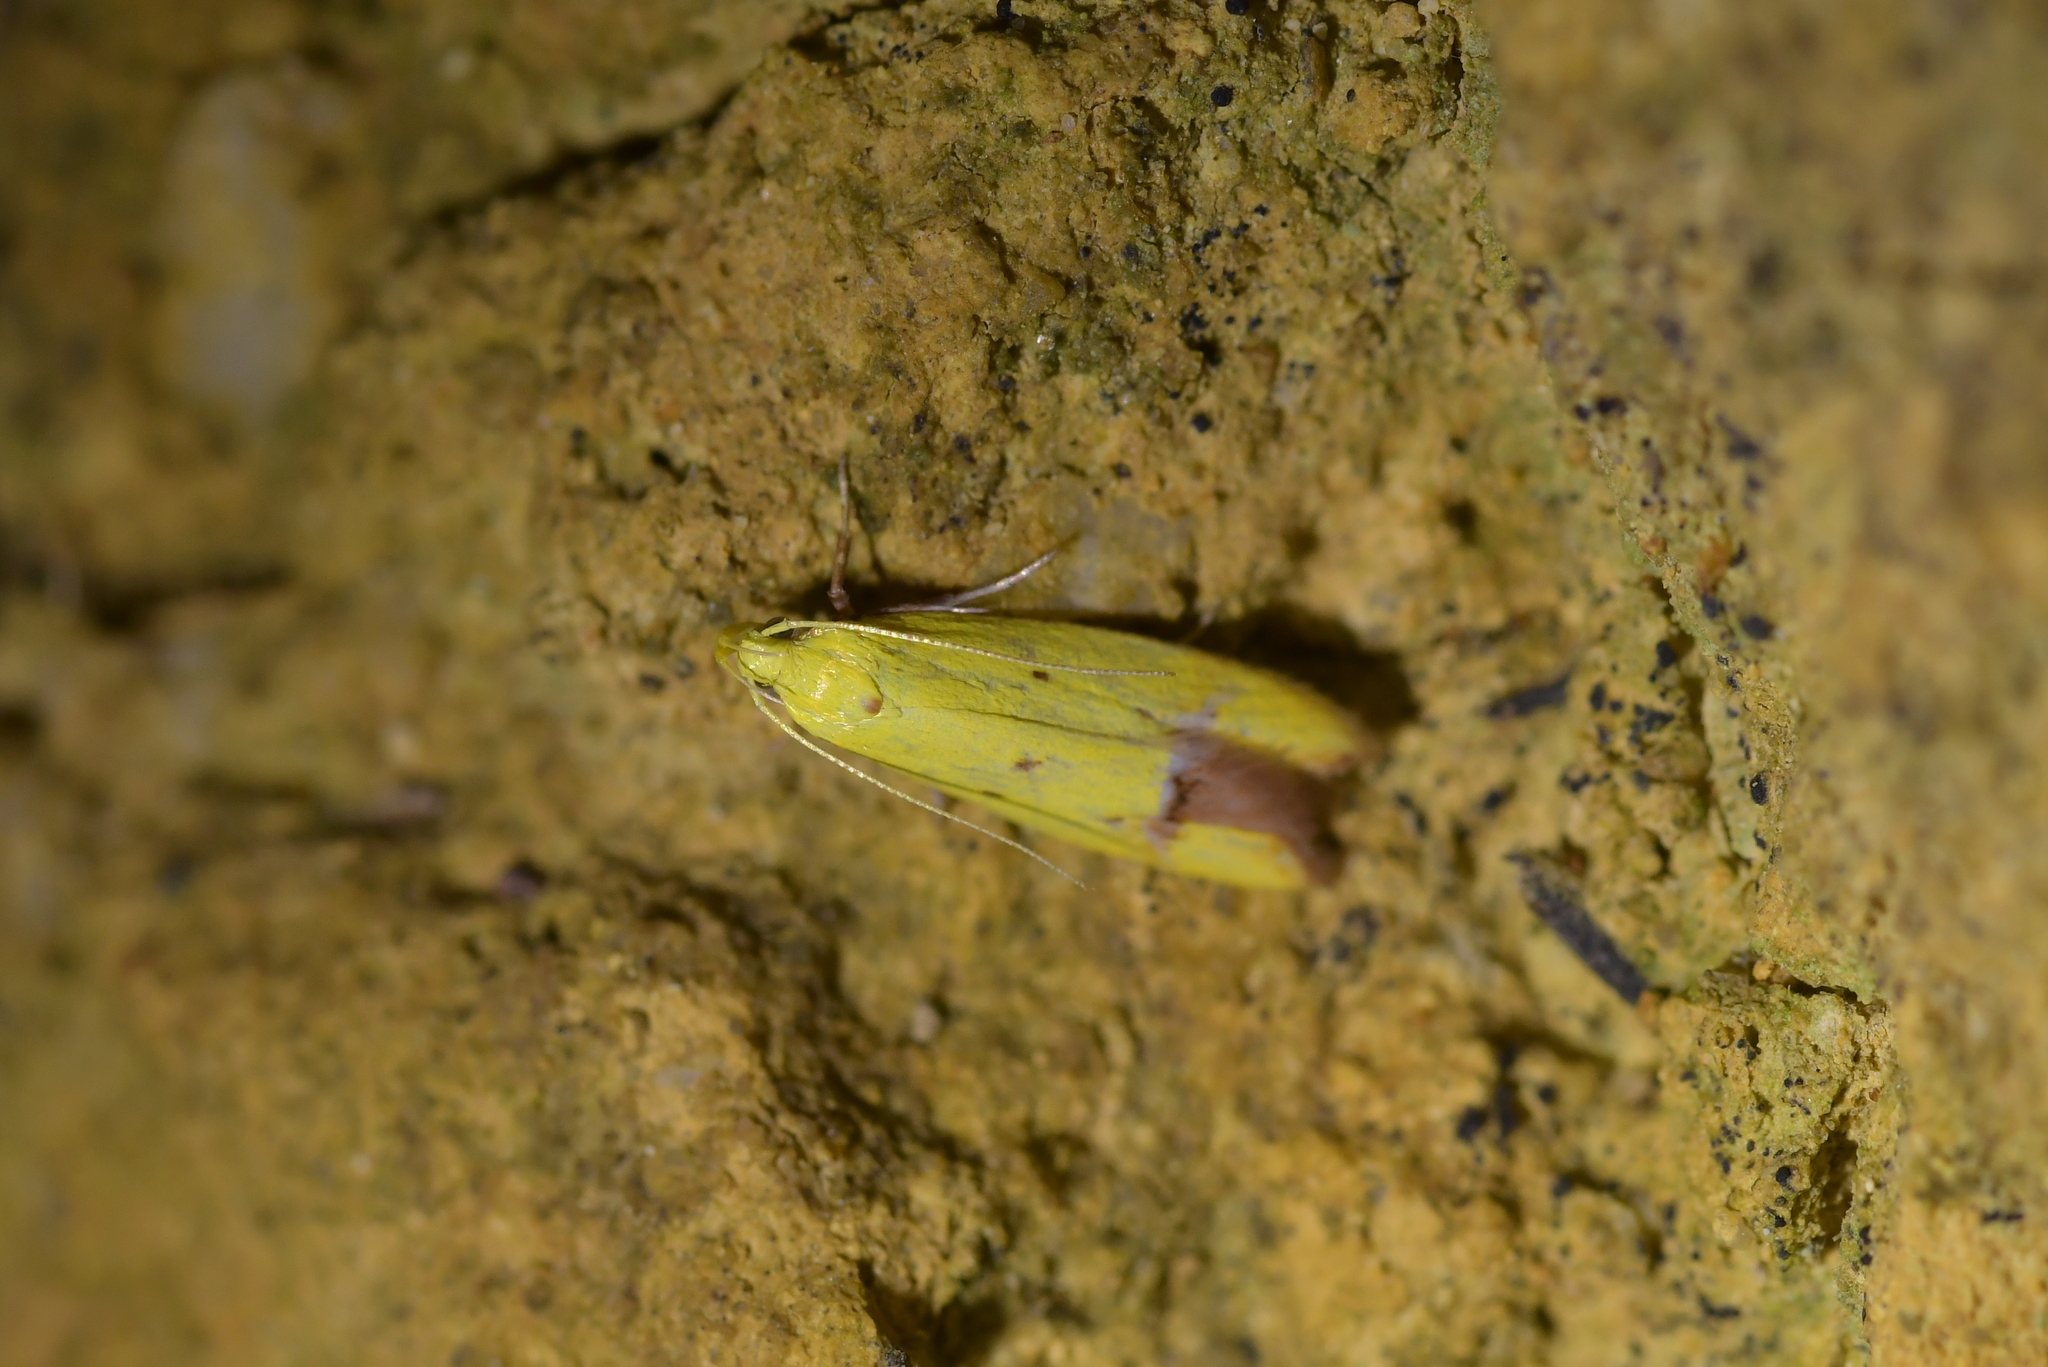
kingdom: Animalia
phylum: Arthropoda
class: Insecta
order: Lepidoptera
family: Oecophoridae
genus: Gymnobathra
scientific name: Gymnobathra flavidella
